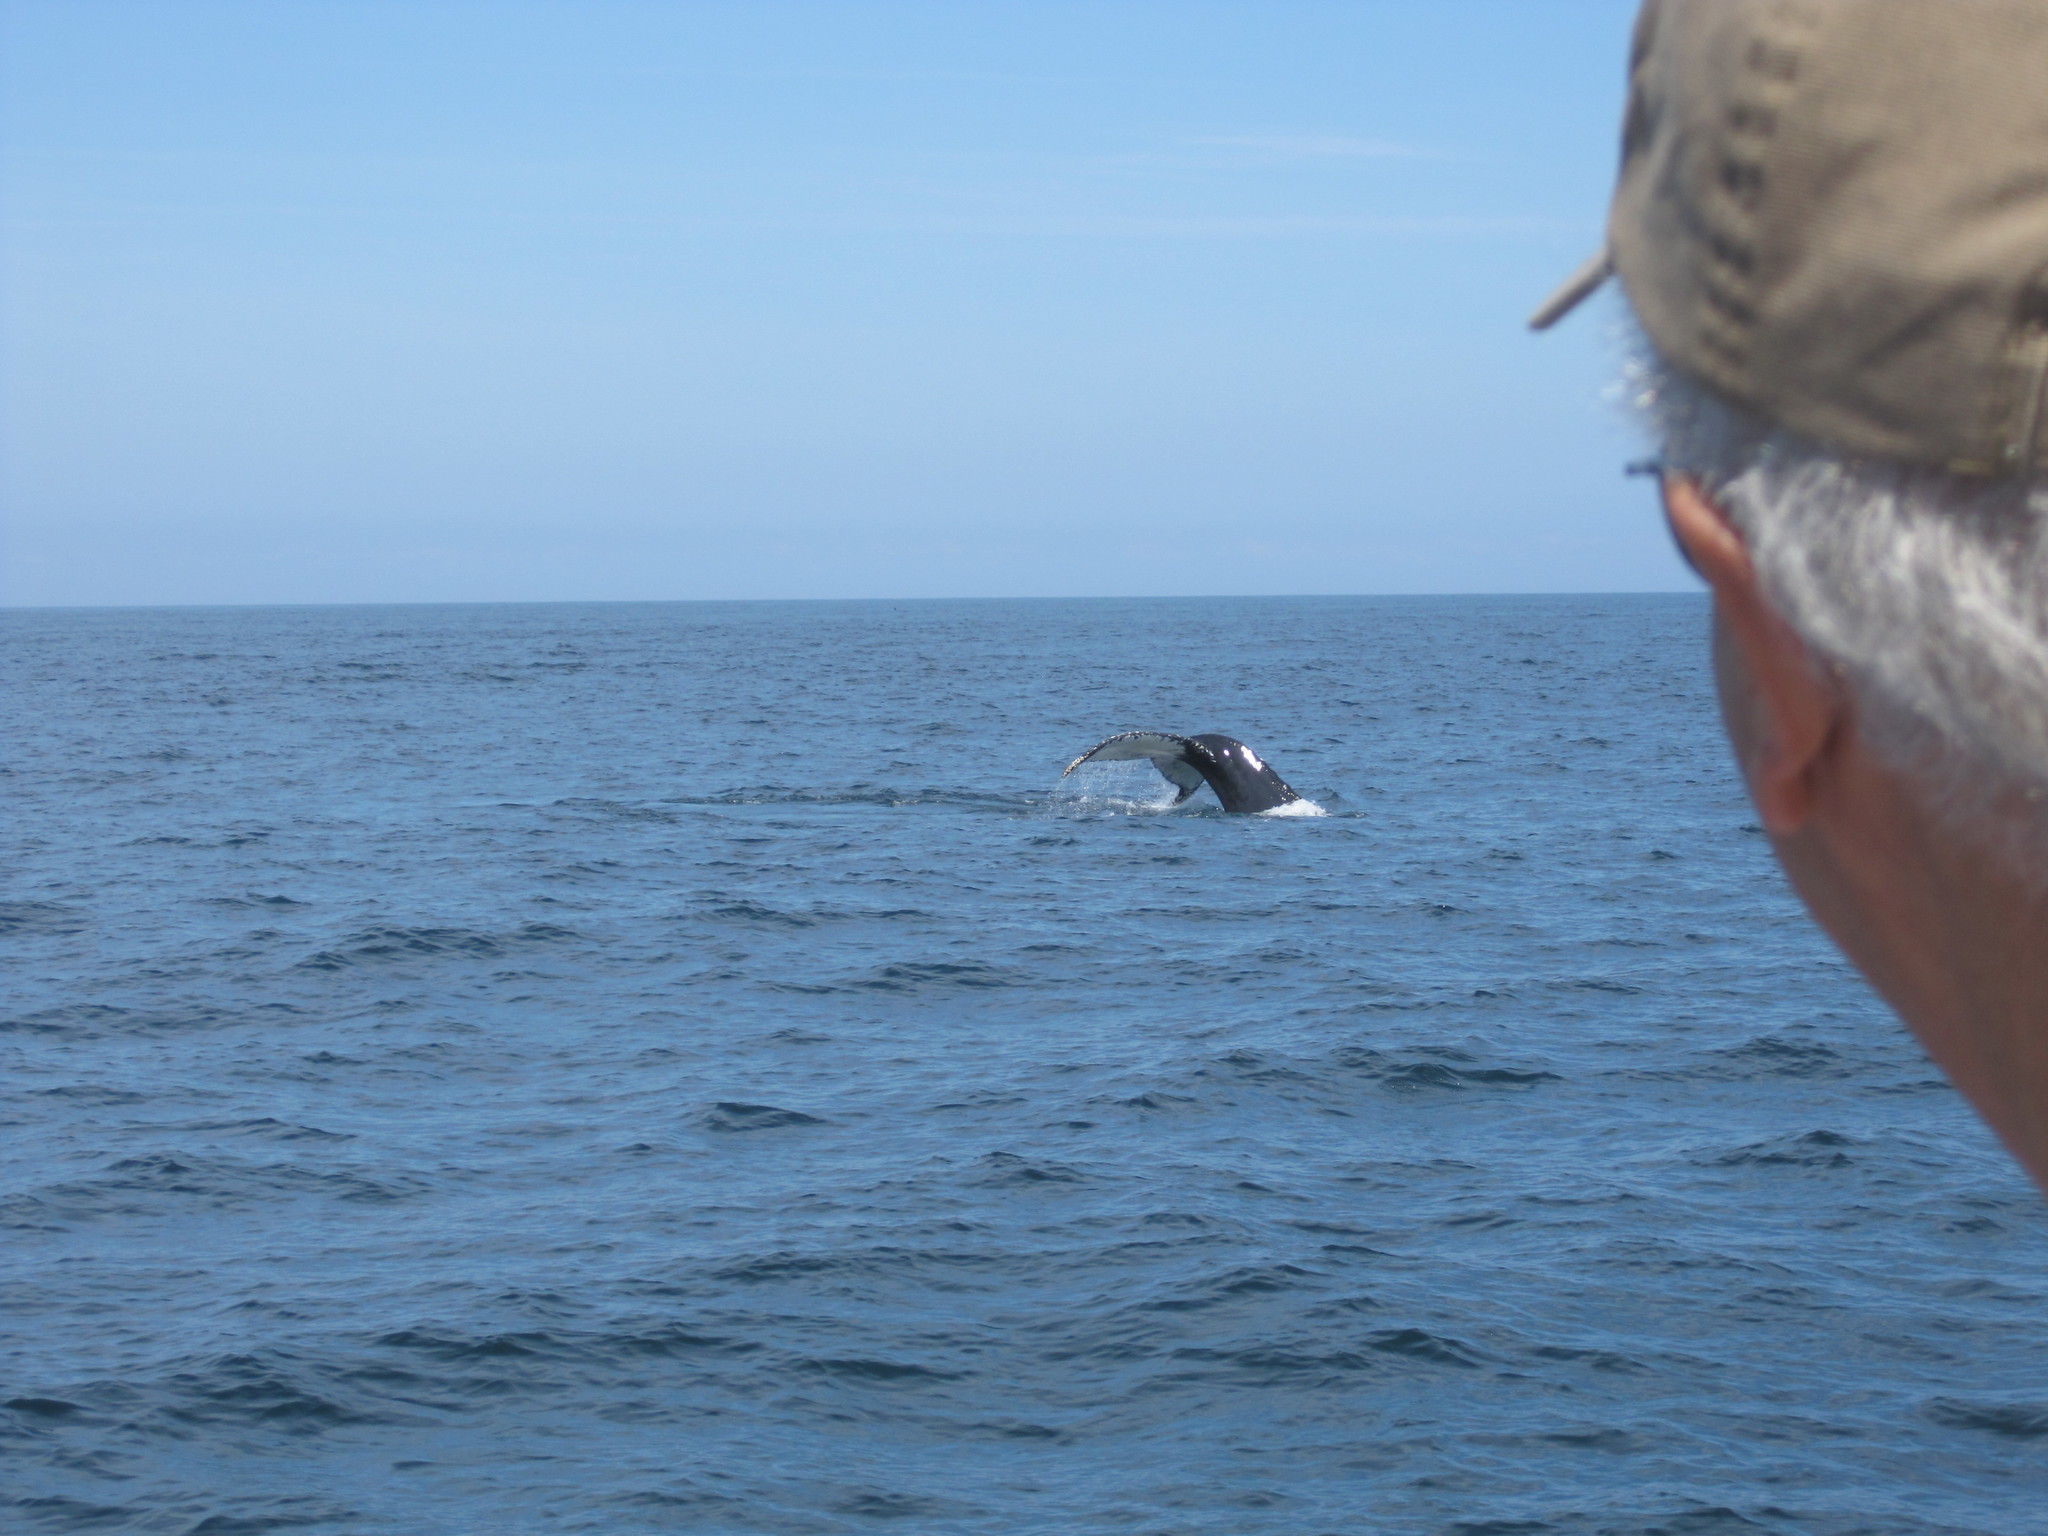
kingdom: Animalia
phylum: Chordata
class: Mammalia
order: Cetacea
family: Balaenopteridae
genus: Megaptera
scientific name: Megaptera novaeangliae
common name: Humpback whale
